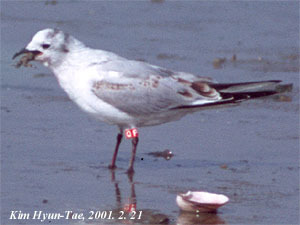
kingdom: Animalia
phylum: Chordata
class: Aves
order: Charadriiformes
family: Laridae
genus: Chroicocephalus
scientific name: Chroicocephalus saundersi
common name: Saunders's gull
